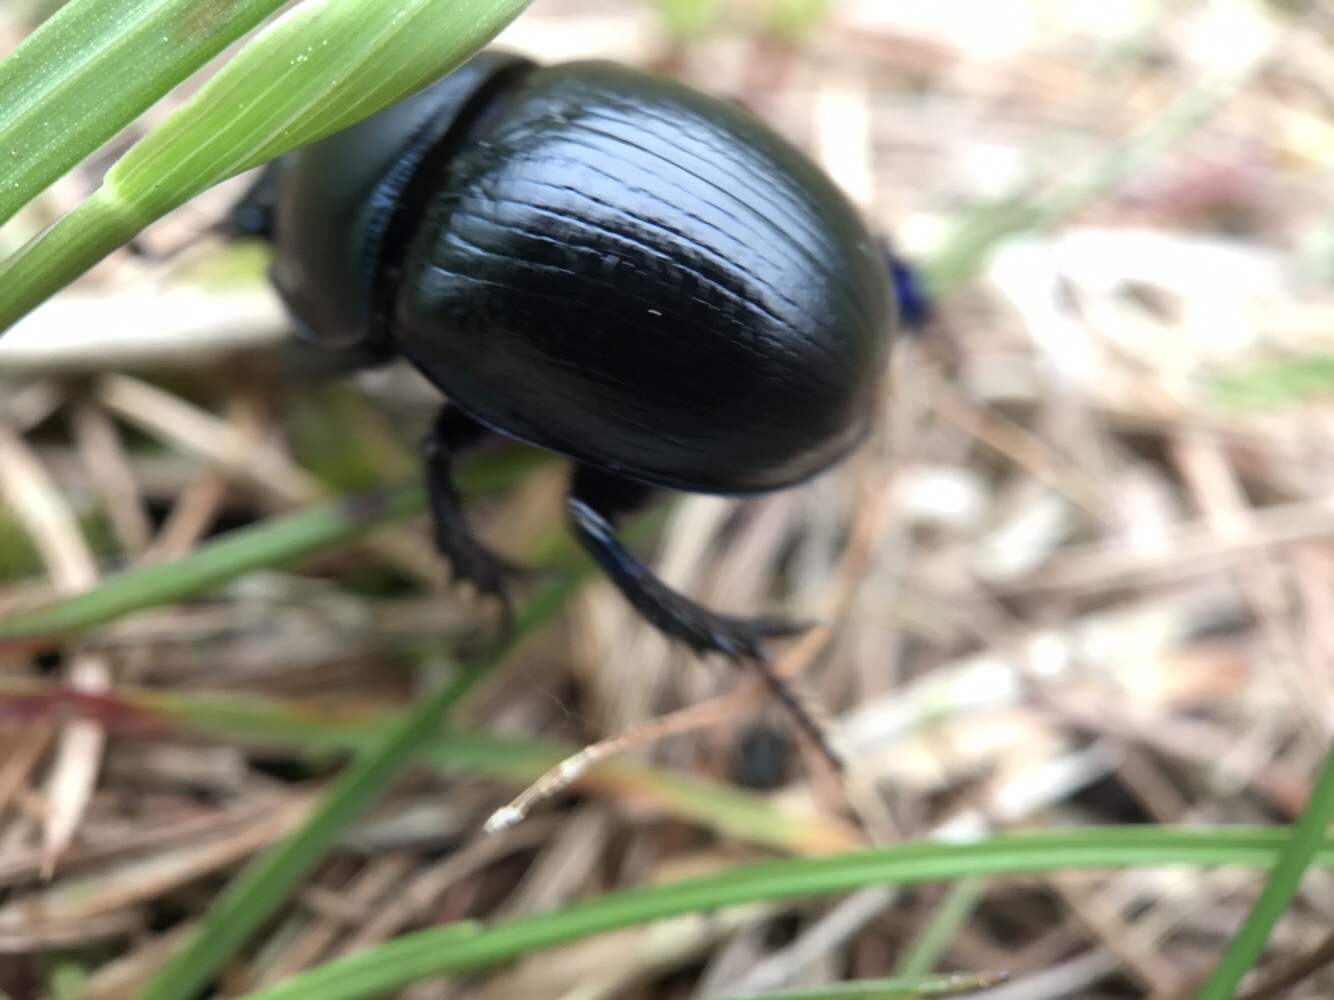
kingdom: Animalia
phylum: Arthropoda
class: Insecta
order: Coleoptera
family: Geotrupidae
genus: Anoplotrupes
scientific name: Anoplotrupes stercorosus
